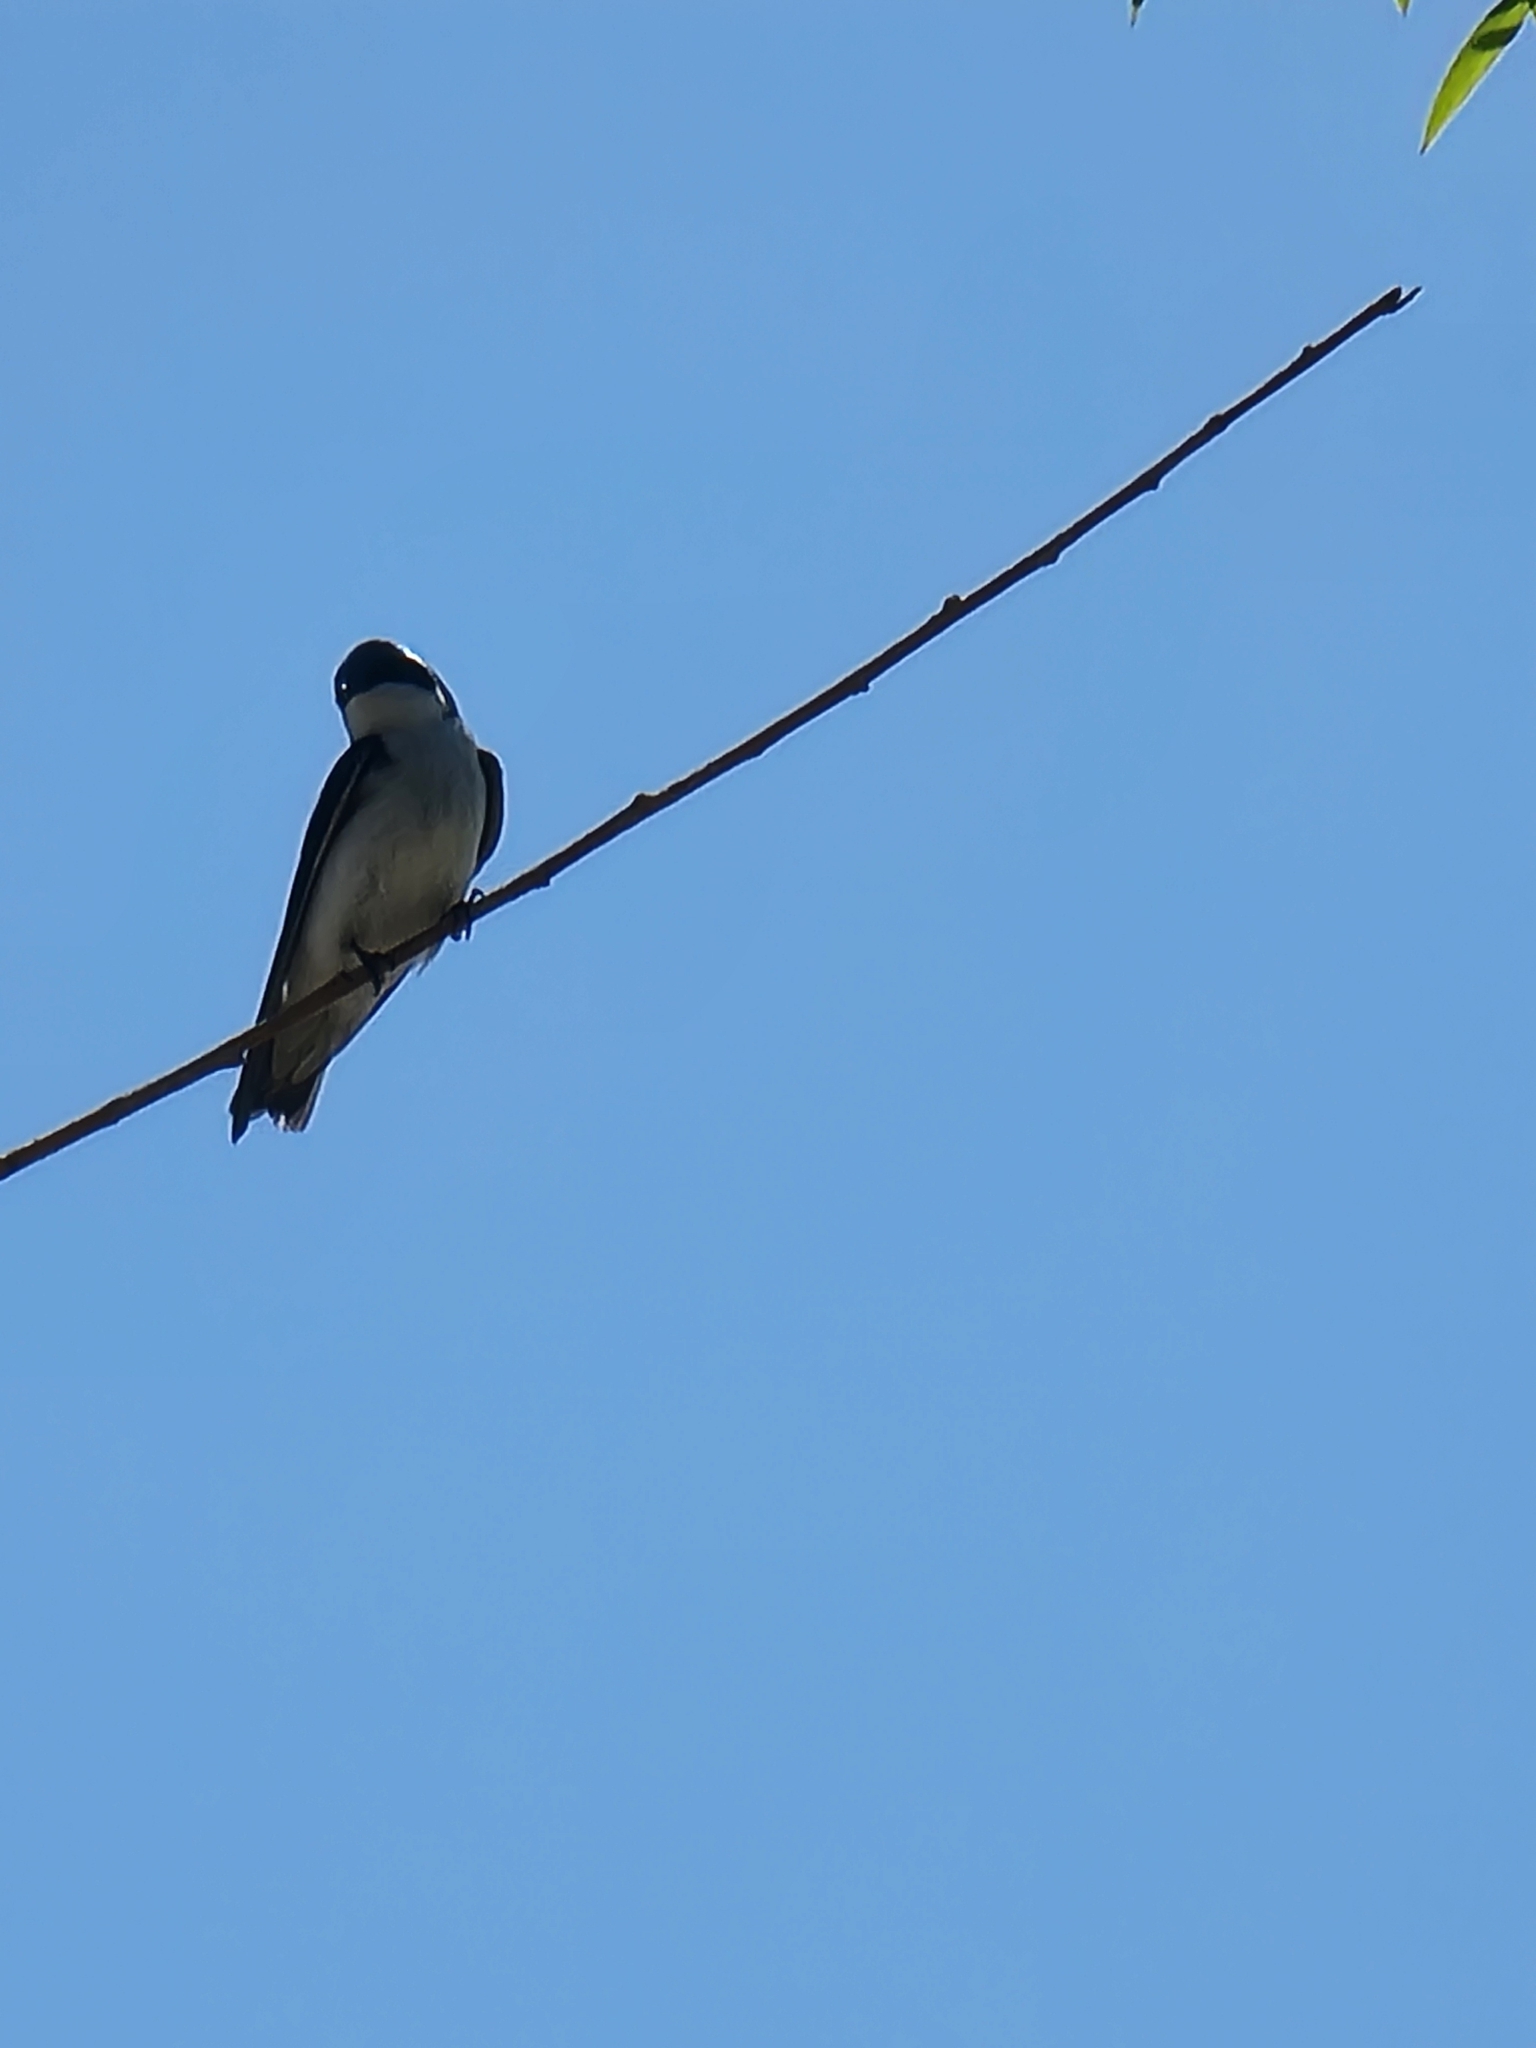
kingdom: Animalia
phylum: Chordata
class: Aves
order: Passeriformes
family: Hirundinidae
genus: Tachycineta
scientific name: Tachycineta bicolor
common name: Tree swallow
